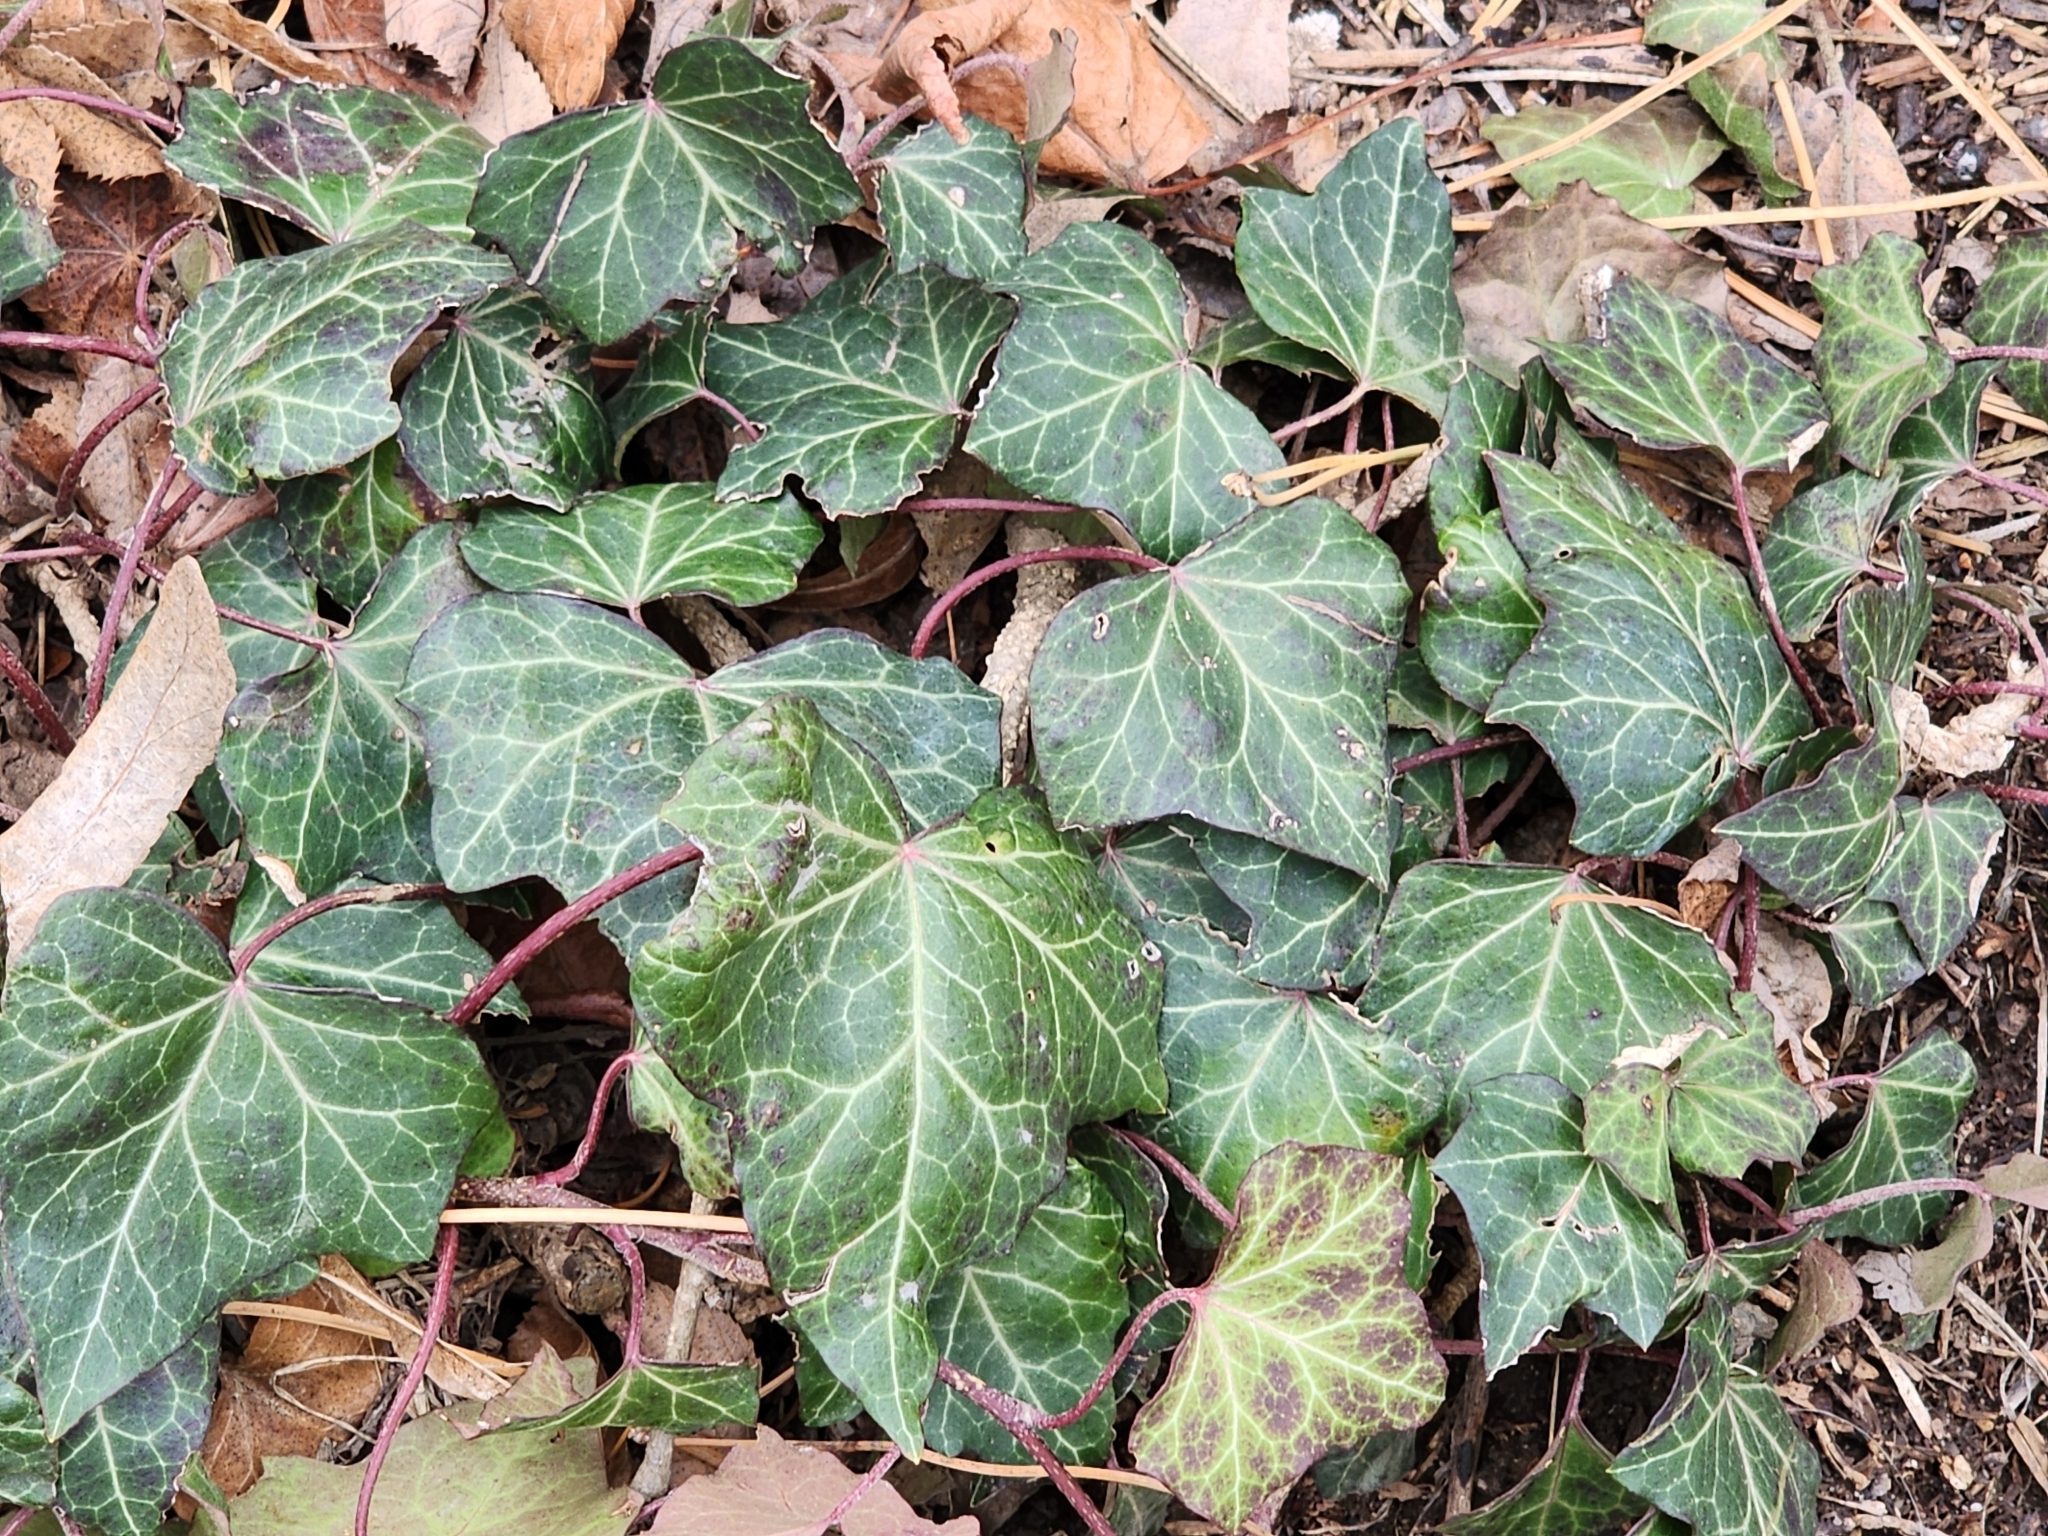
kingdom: Plantae
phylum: Tracheophyta
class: Magnoliopsida
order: Apiales
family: Araliaceae
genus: Hedera
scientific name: Hedera helix
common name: Ivy
